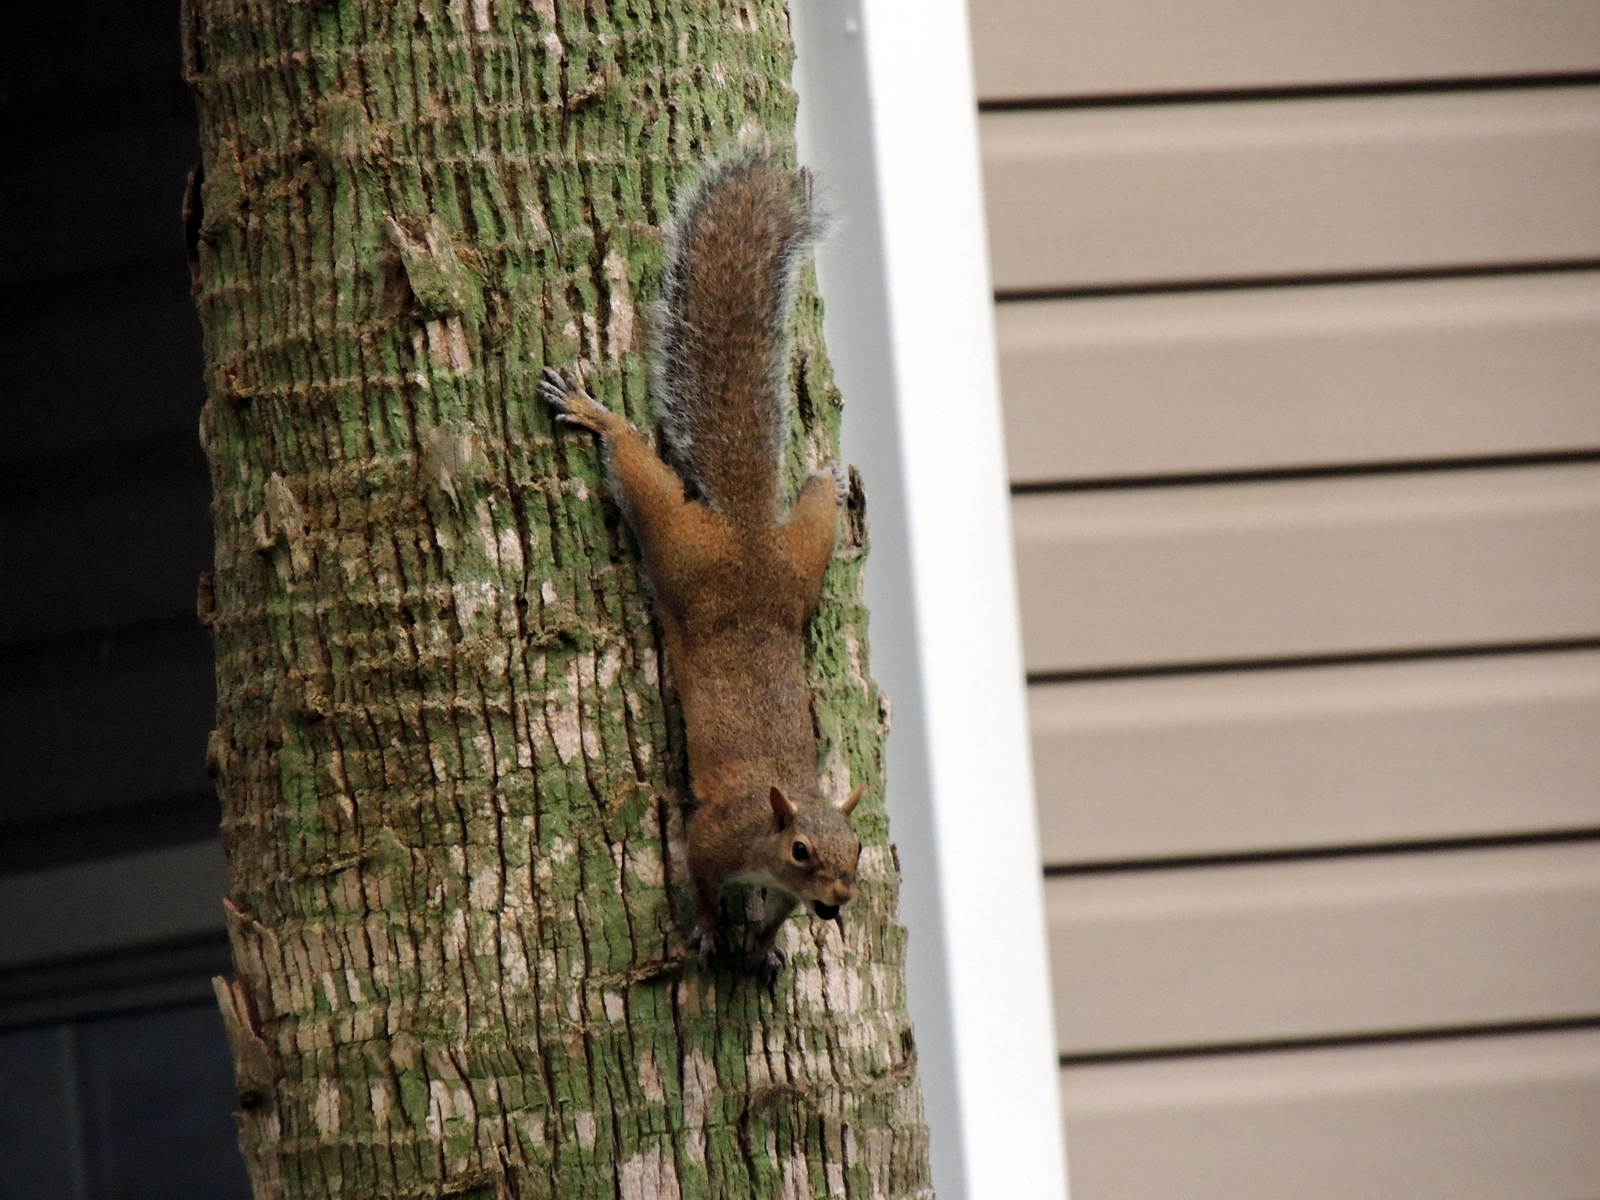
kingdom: Animalia
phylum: Chordata
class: Mammalia
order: Rodentia
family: Sciuridae
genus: Sciurus
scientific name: Sciurus carolinensis
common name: Eastern gray squirrel
